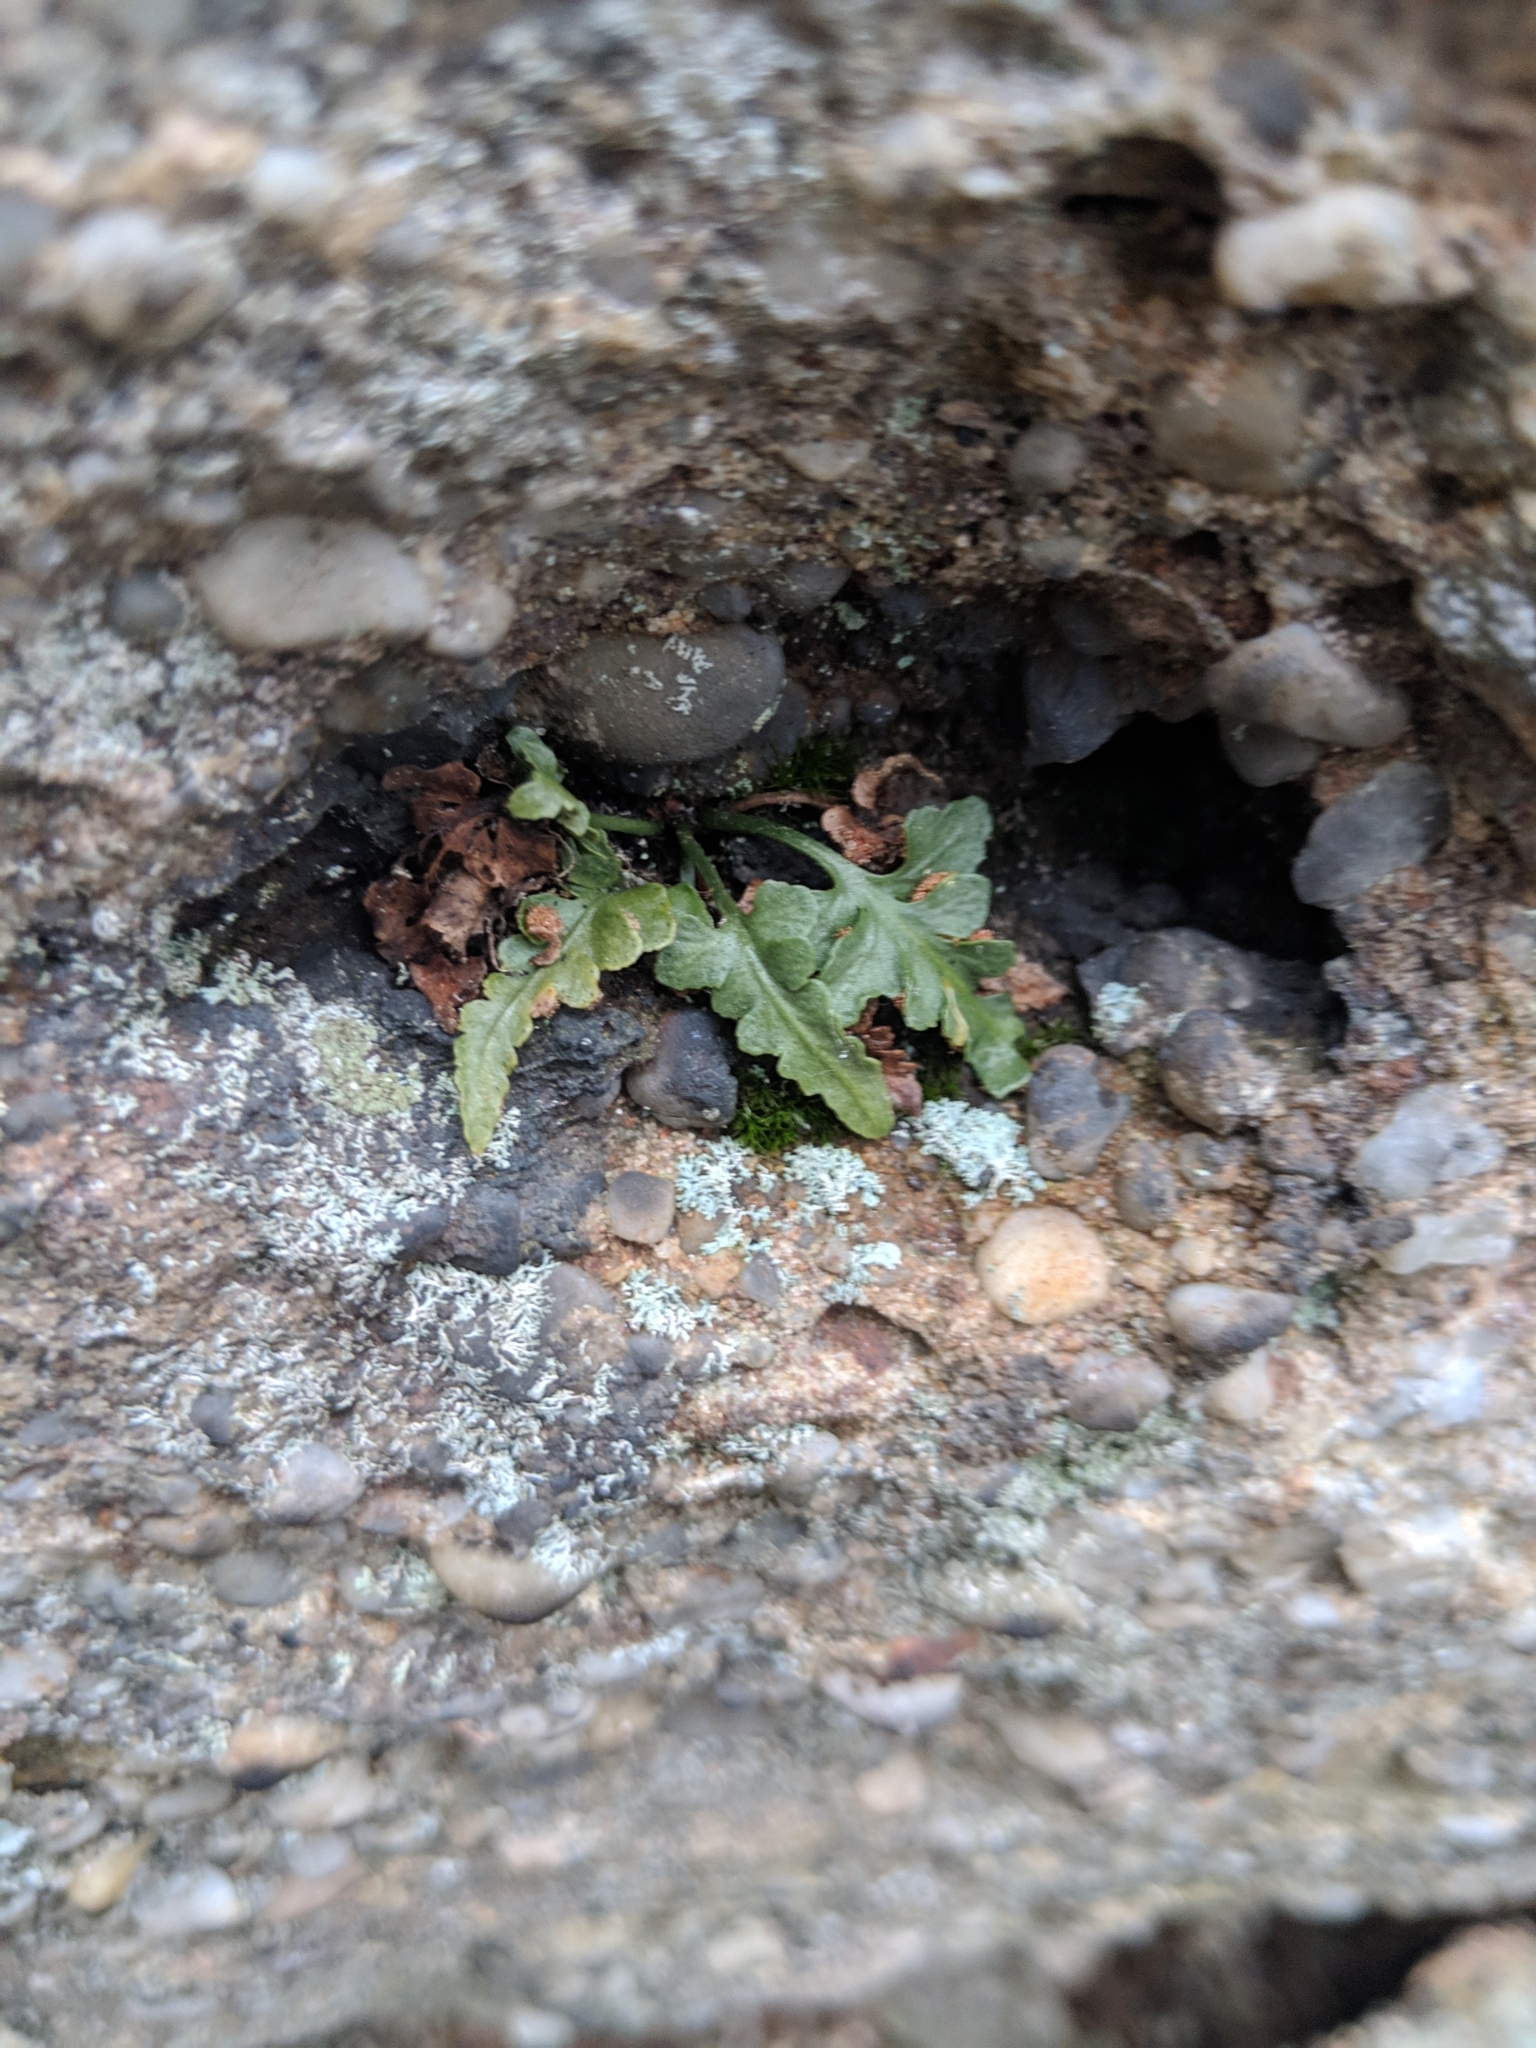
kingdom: Plantae
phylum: Tracheophyta
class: Polypodiopsida
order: Polypodiales
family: Aspleniaceae
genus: Asplenium
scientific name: Asplenium pinnatifidum
